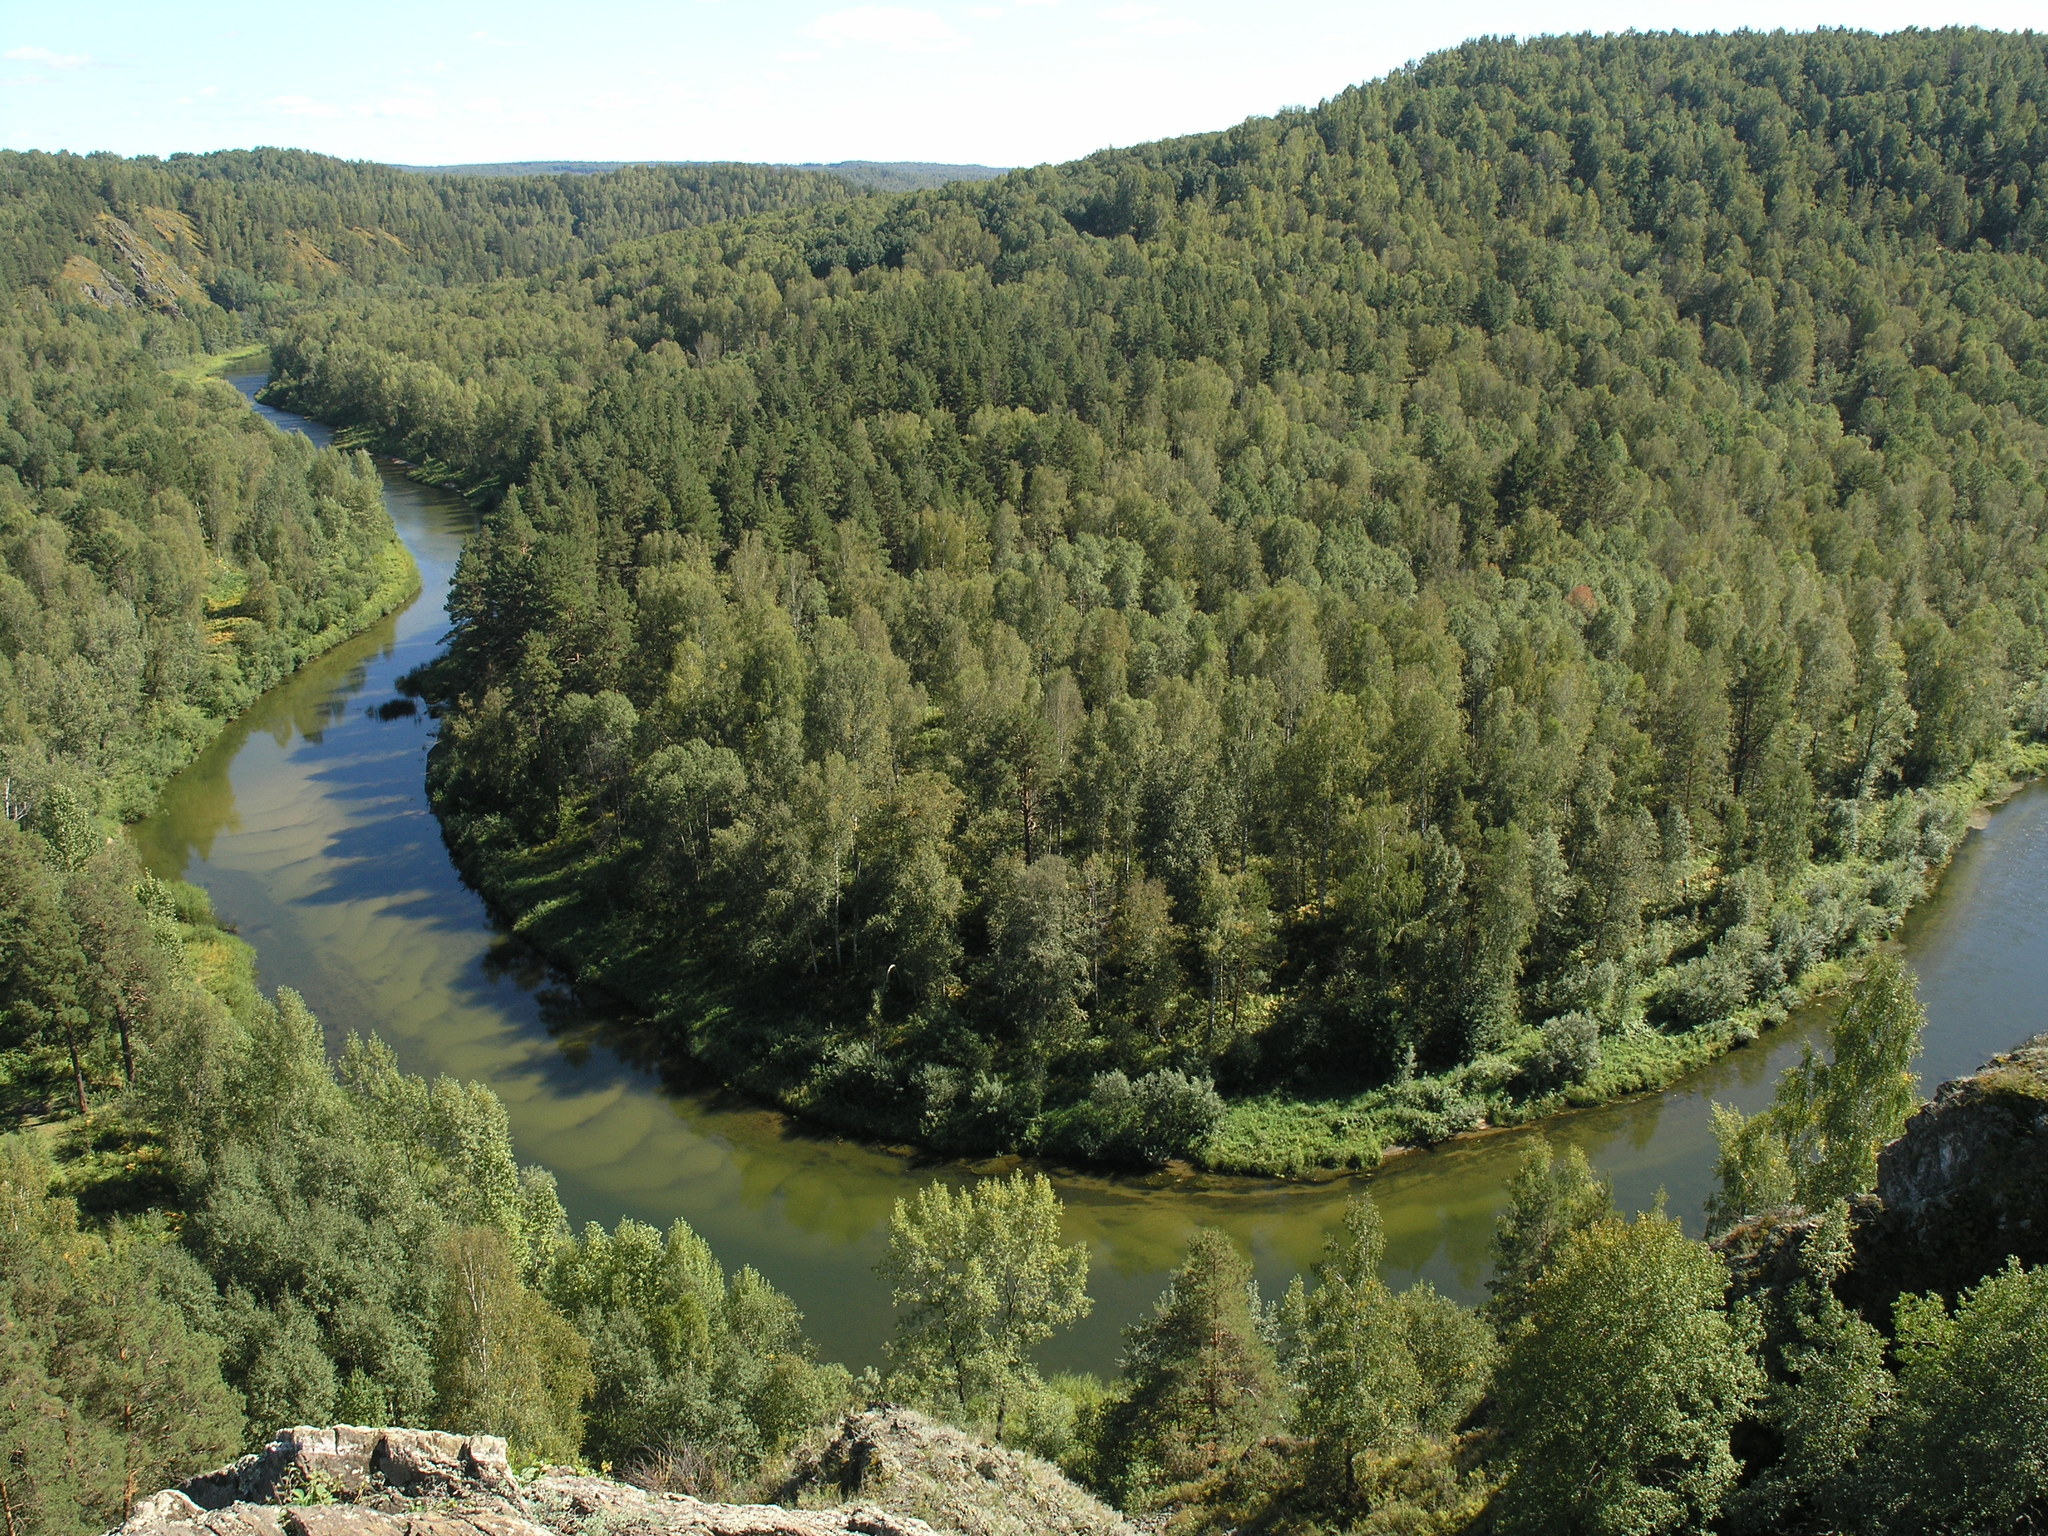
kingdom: Plantae
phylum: Tracheophyta
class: Pinopsida
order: Pinales
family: Pinaceae
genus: Pinus
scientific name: Pinus sylvestris
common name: Scots pine
